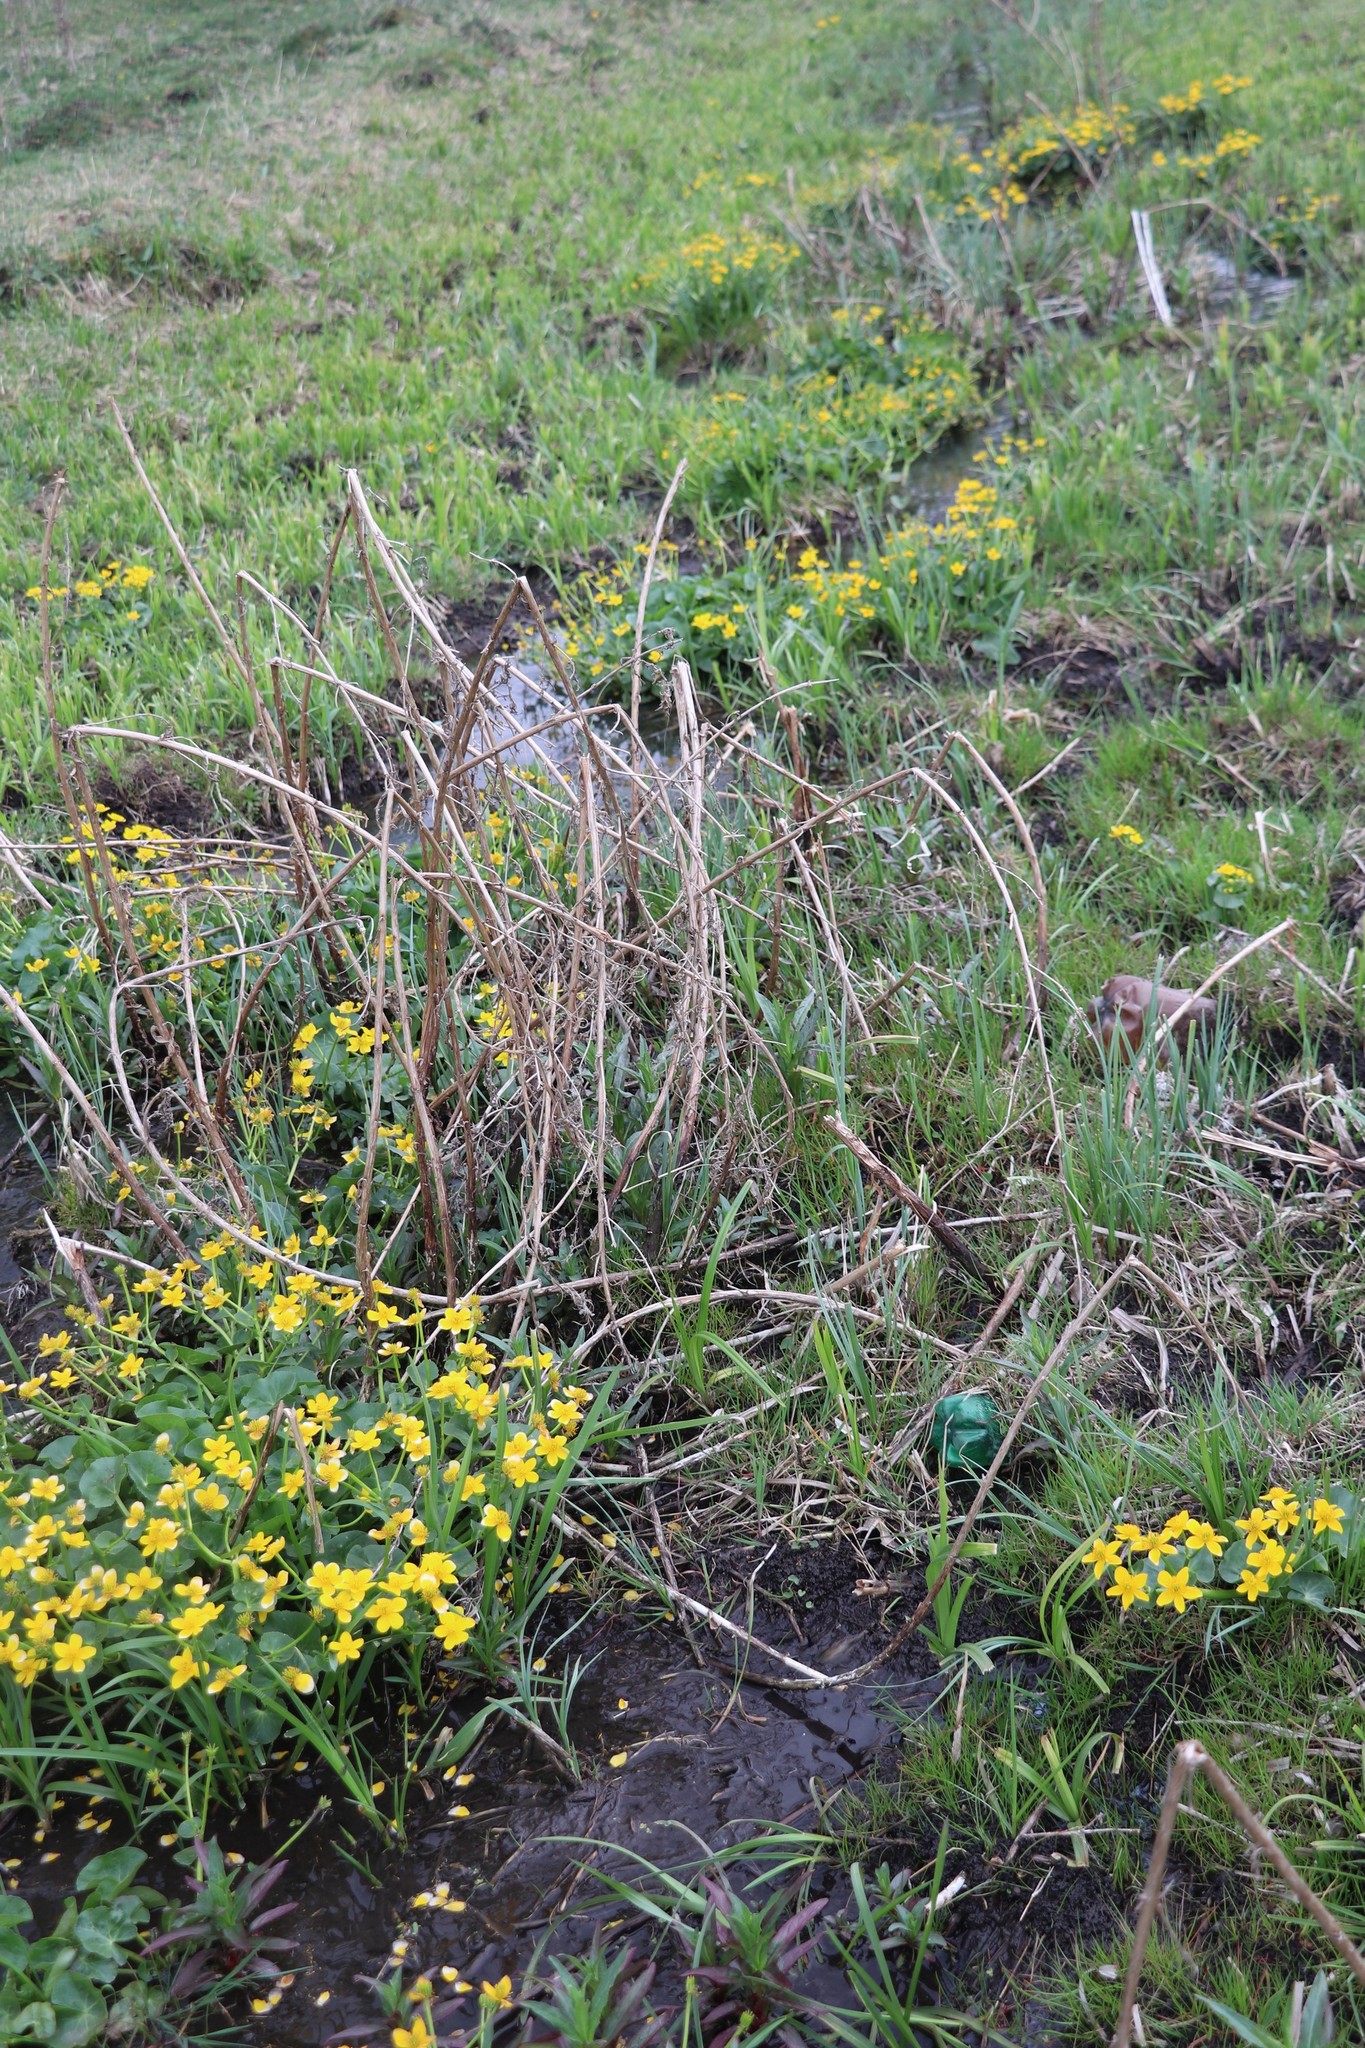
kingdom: Plantae
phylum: Tracheophyta
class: Magnoliopsida
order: Ranunculales
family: Ranunculaceae
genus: Caltha
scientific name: Caltha palustris
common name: Marsh marigold
